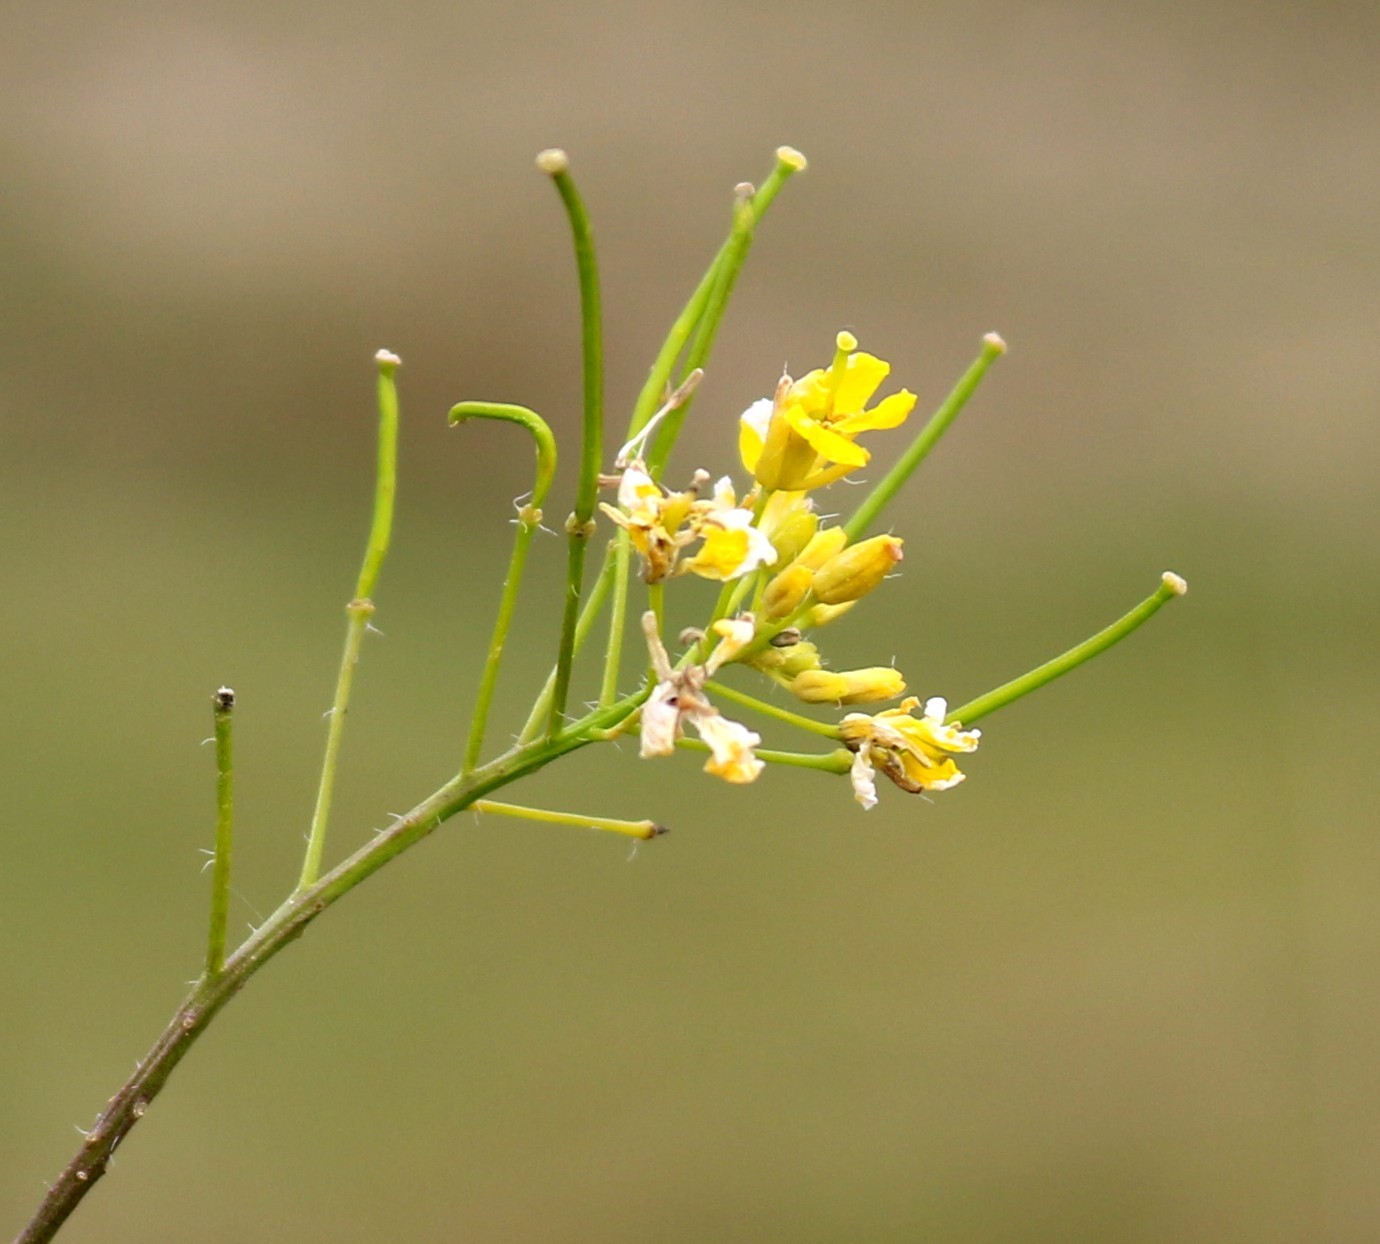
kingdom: Plantae
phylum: Tracheophyta
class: Magnoliopsida
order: Brassicales
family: Brassicaceae
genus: Sisymbrium
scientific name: Sisymbrium loeselii
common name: False london-rocket
